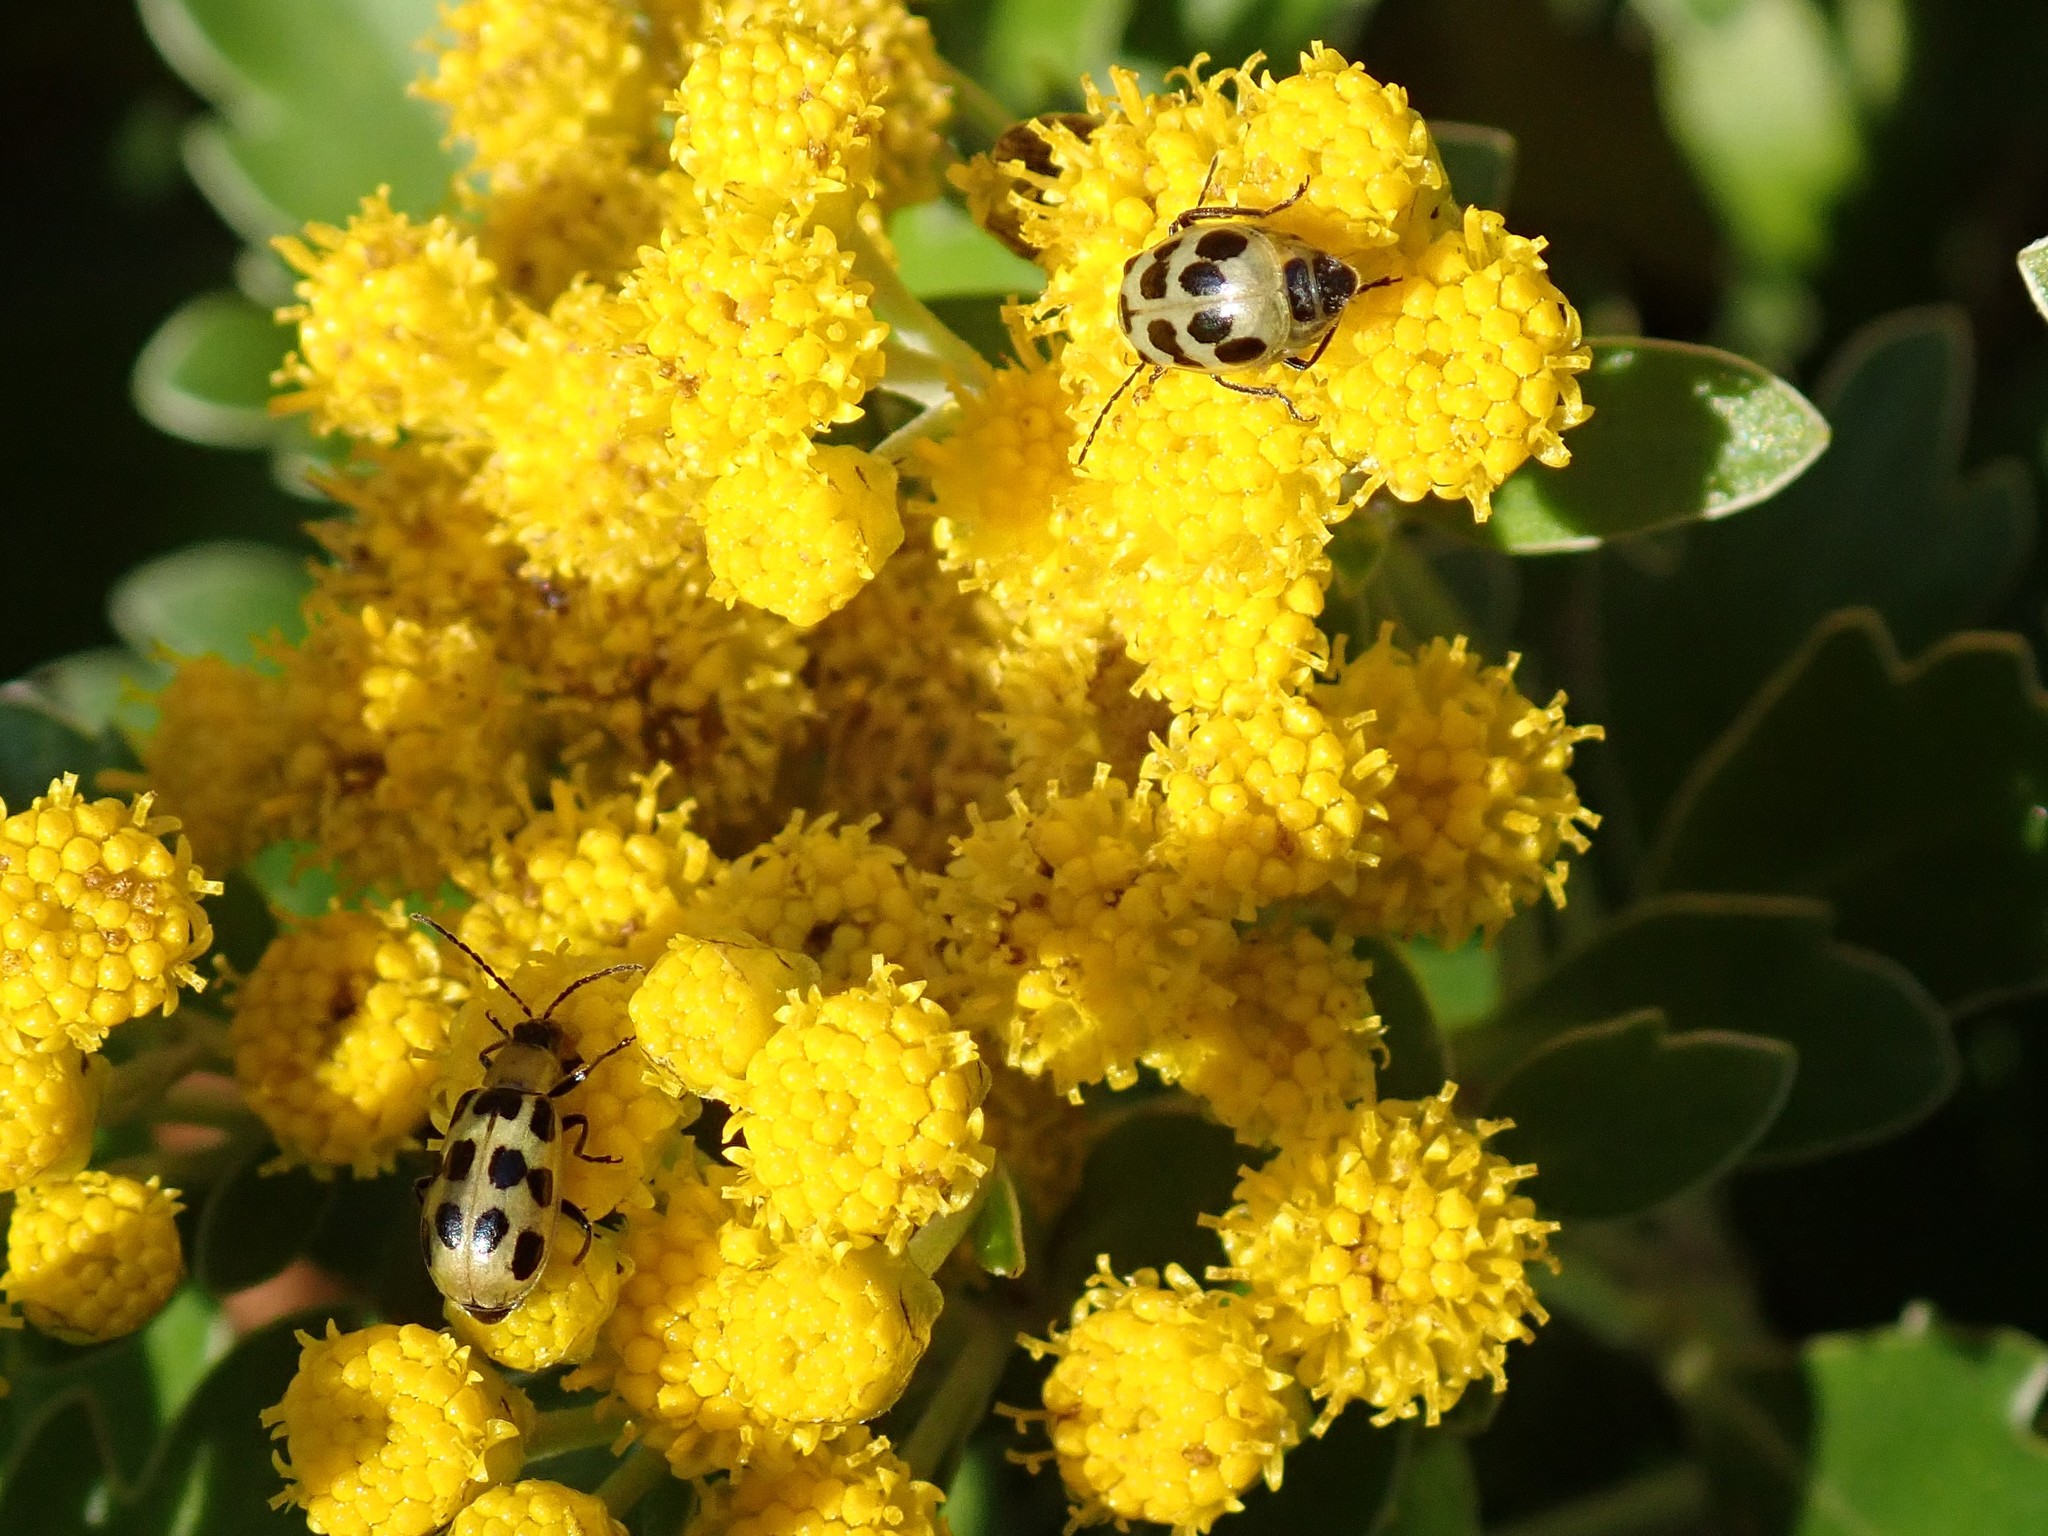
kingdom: Animalia
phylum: Arthropoda
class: Insecta
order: Coleoptera
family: Chrysomelidae
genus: Diabrotica
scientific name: Diabrotica undecimpunctata
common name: Spotted cucumber beetle
